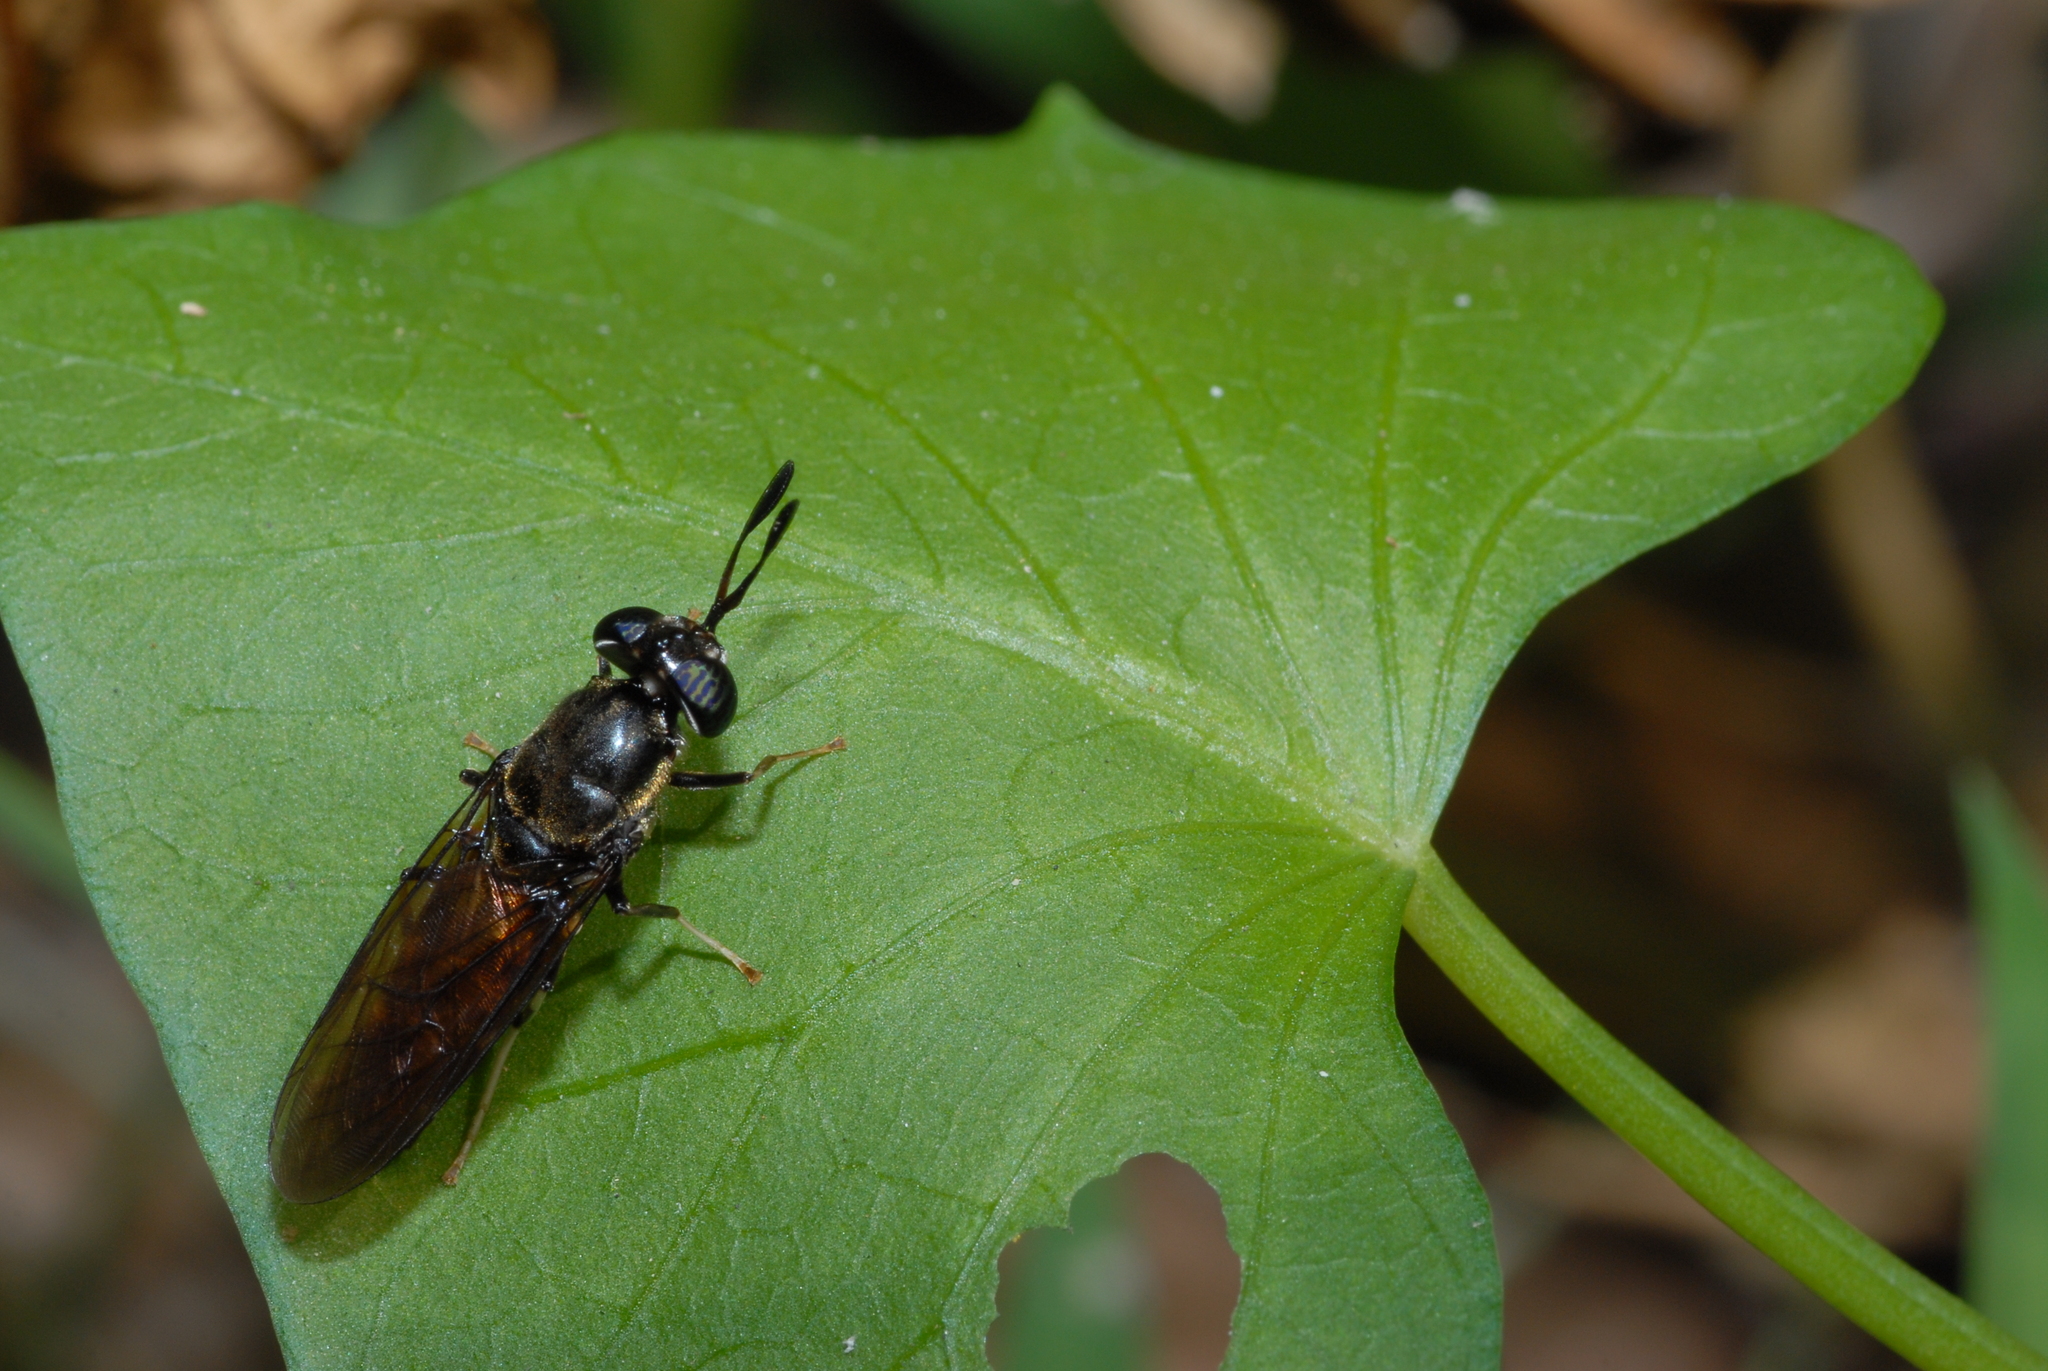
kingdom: Animalia
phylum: Arthropoda
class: Insecta
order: Diptera
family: Stratiomyidae
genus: Hermetia
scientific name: Hermetia illucens
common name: Black soldier fly
